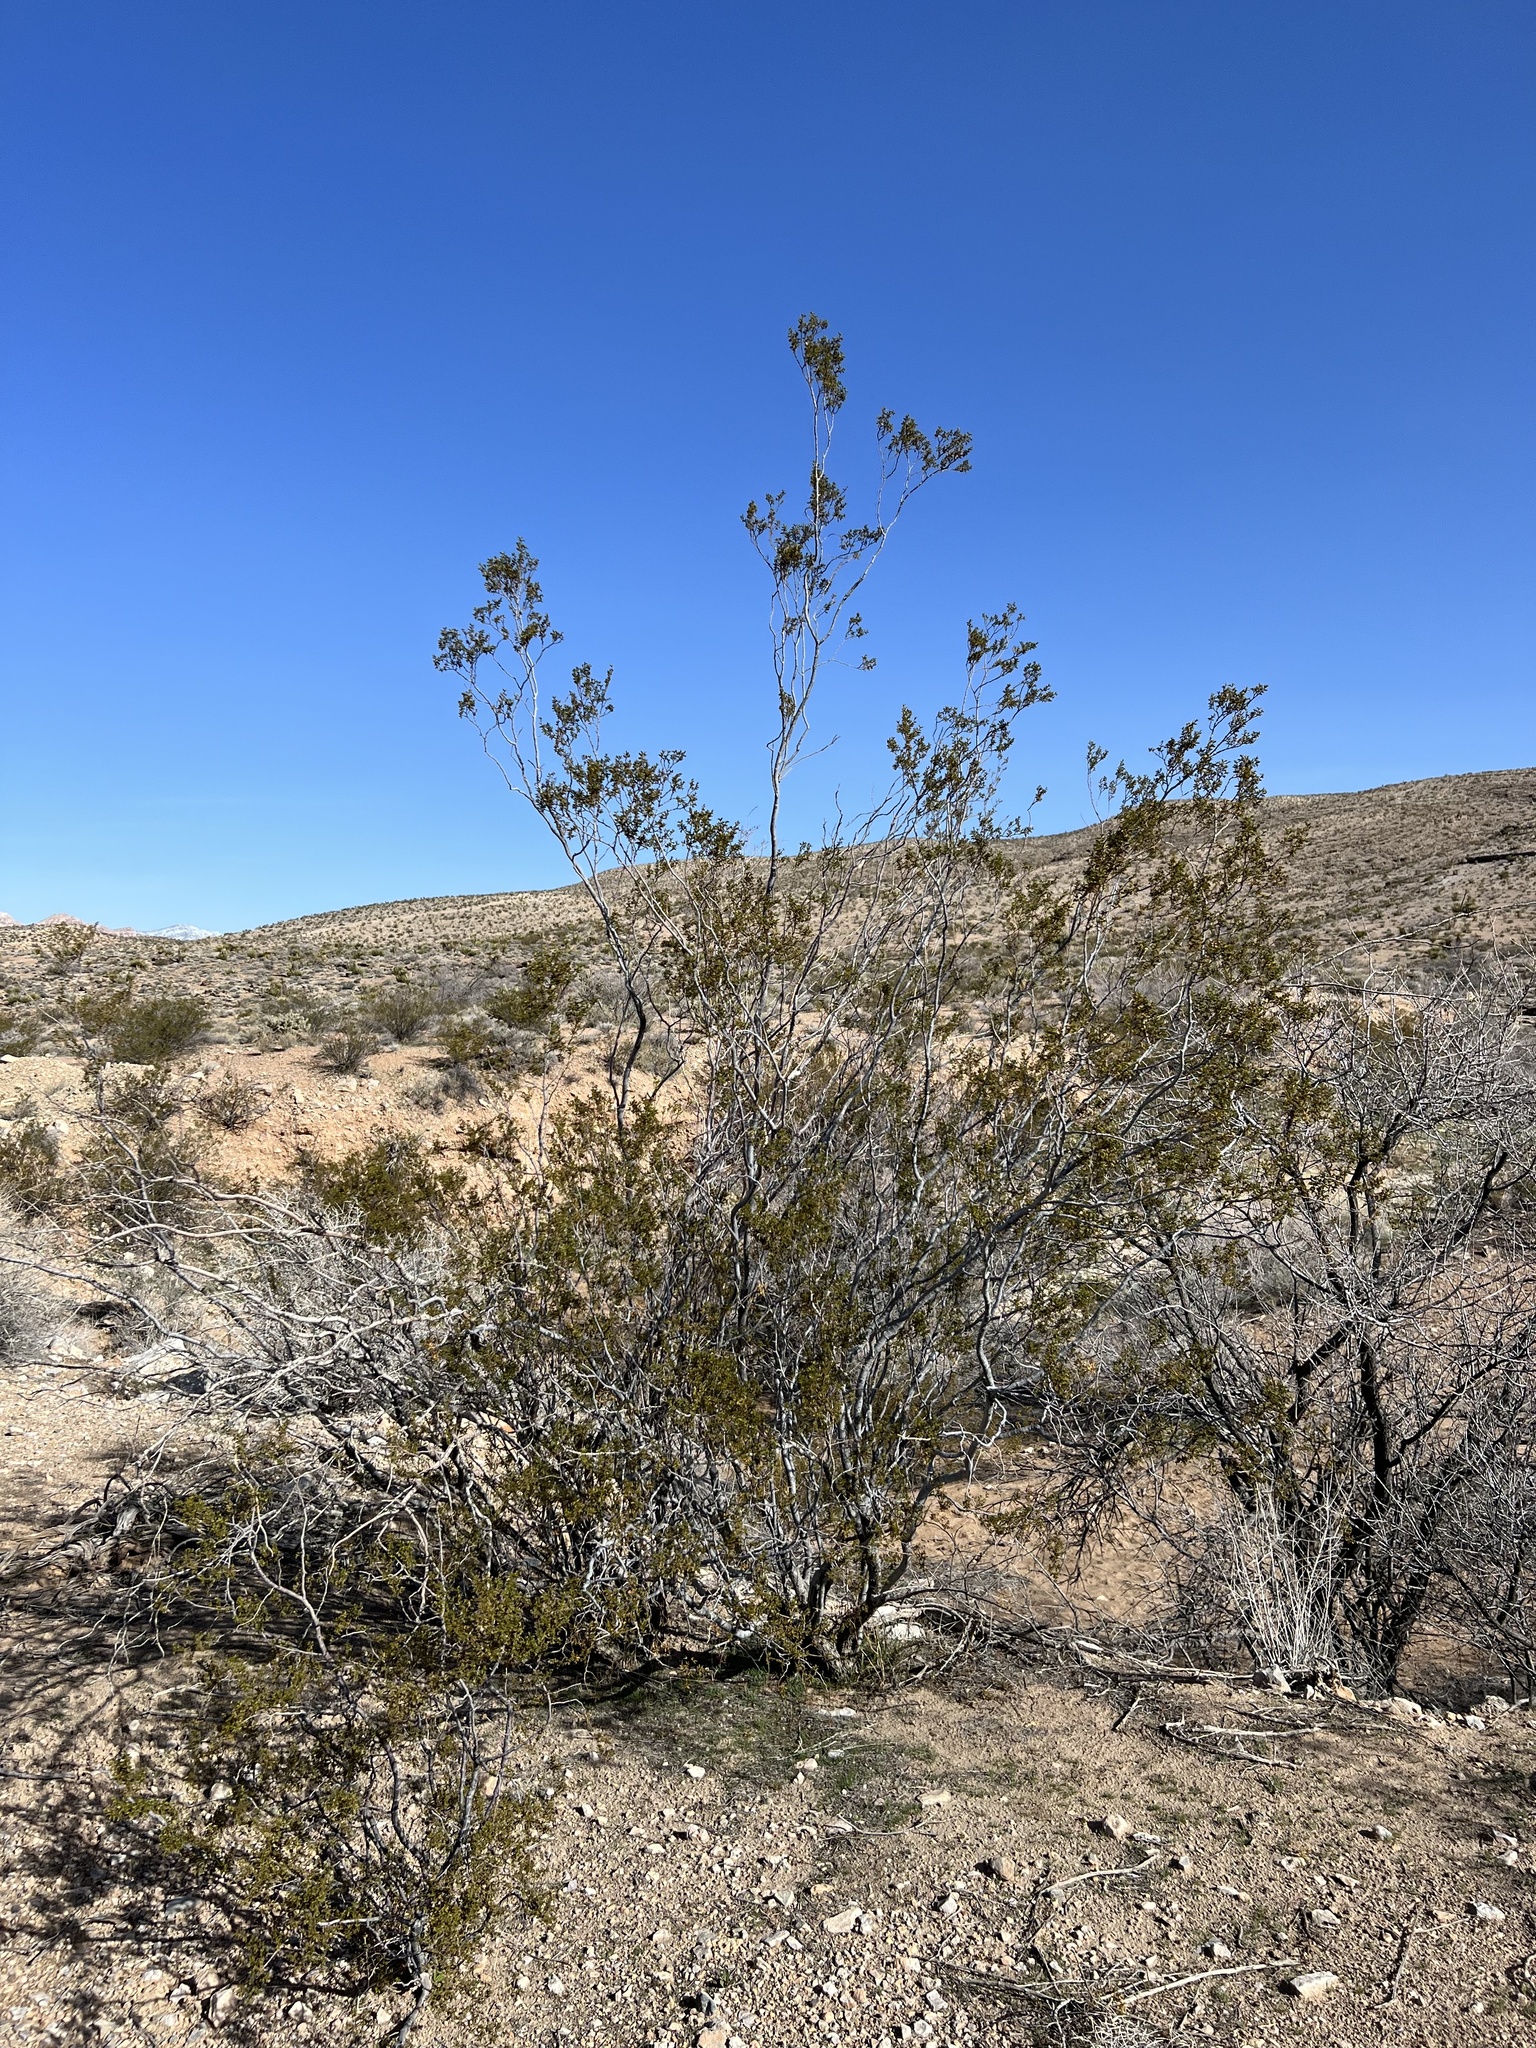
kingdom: Plantae
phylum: Tracheophyta
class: Magnoliopsida
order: Zygophyllales
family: Zygophyllaceae
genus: Larrea
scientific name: Larrea tridentata
